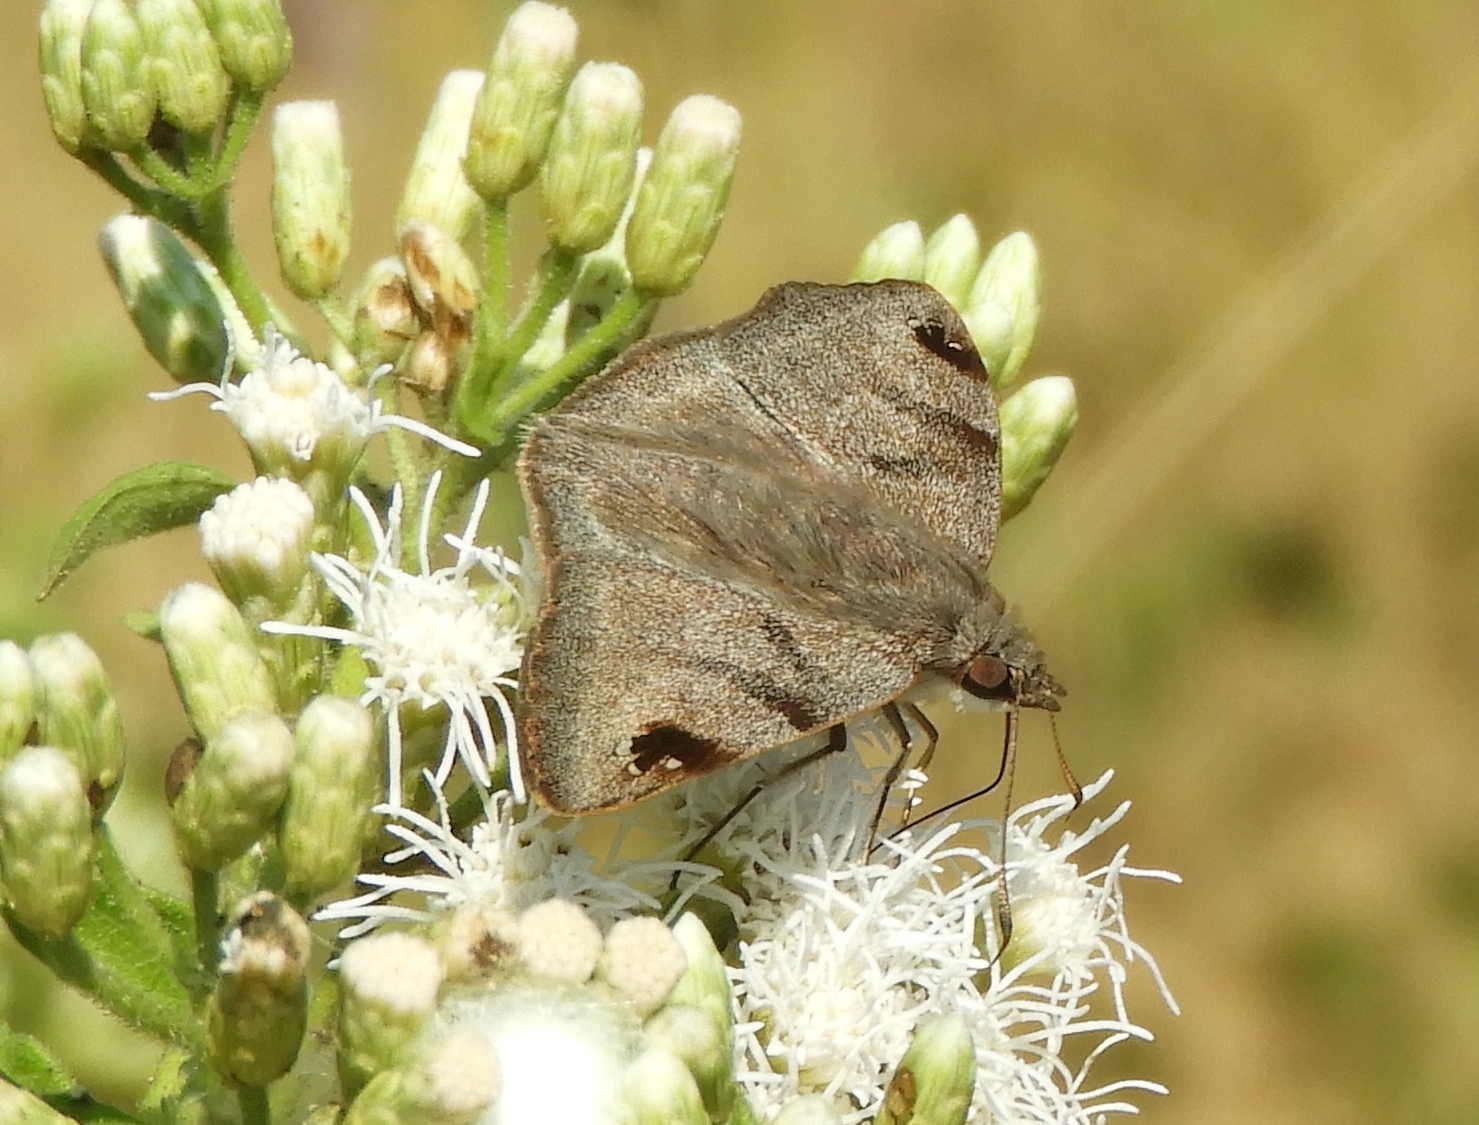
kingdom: Animalia
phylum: Arthropoda
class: Insecta
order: Lepidoptera
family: Hesperiidae
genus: Arteurotia
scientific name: Arteurotia tractipennis
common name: Starred skipper
